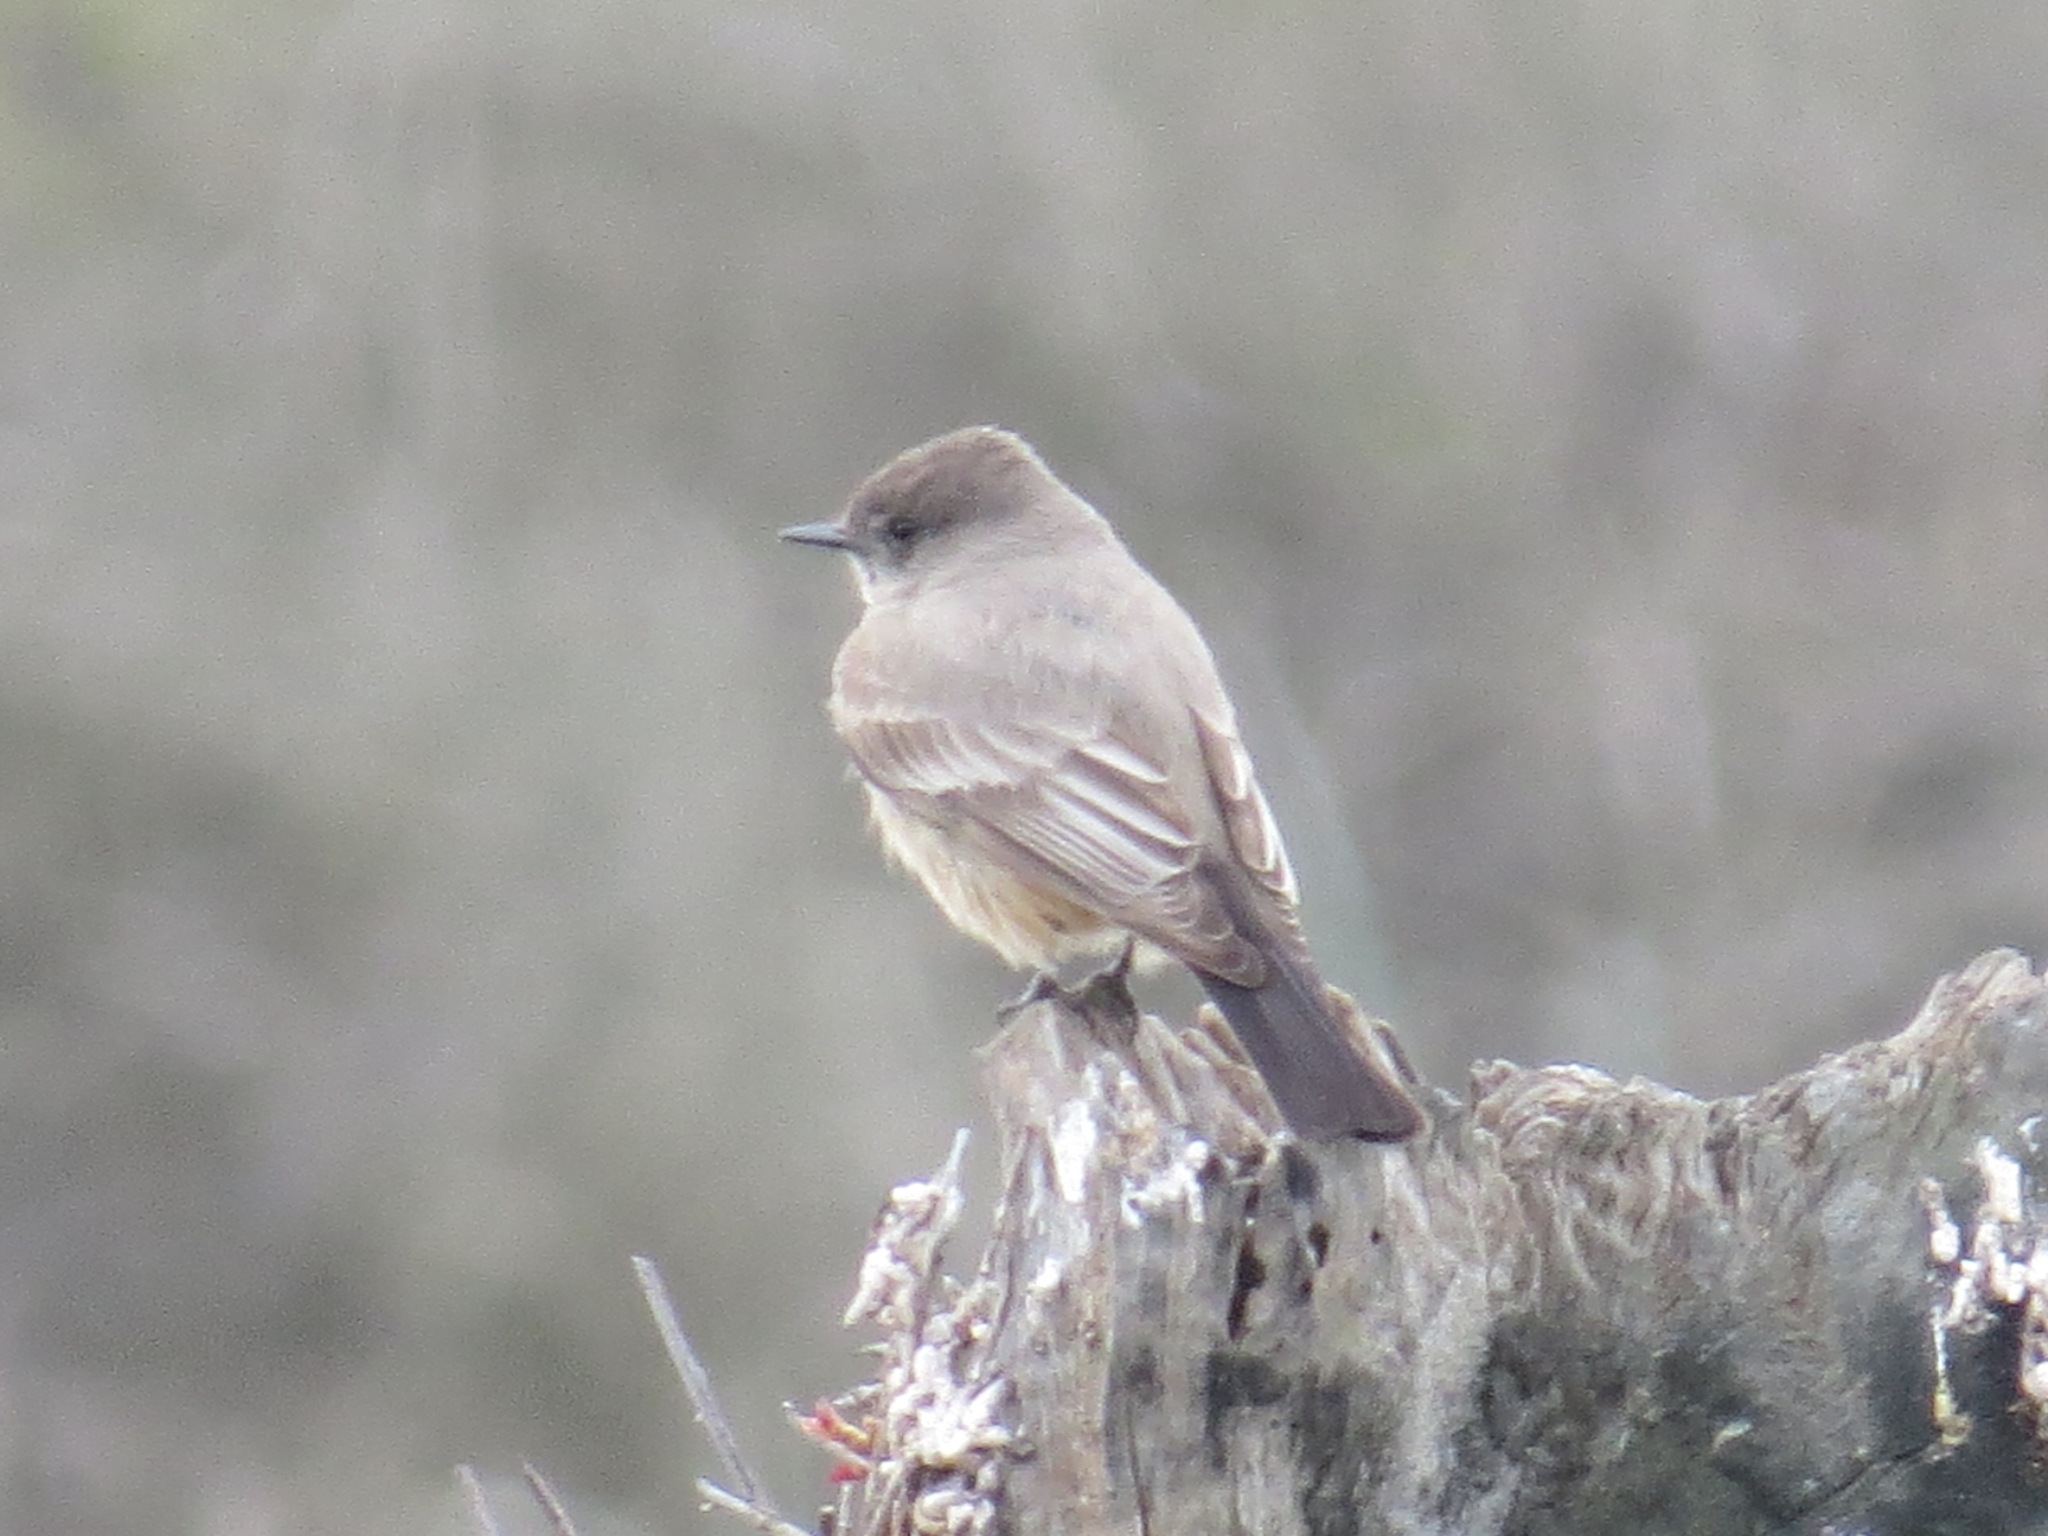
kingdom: Animalia
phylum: Chordata
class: Aves
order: Passeriformes
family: Tyrannidae
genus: Sayornis
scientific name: Sayornis saya
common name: Say's phoebe
